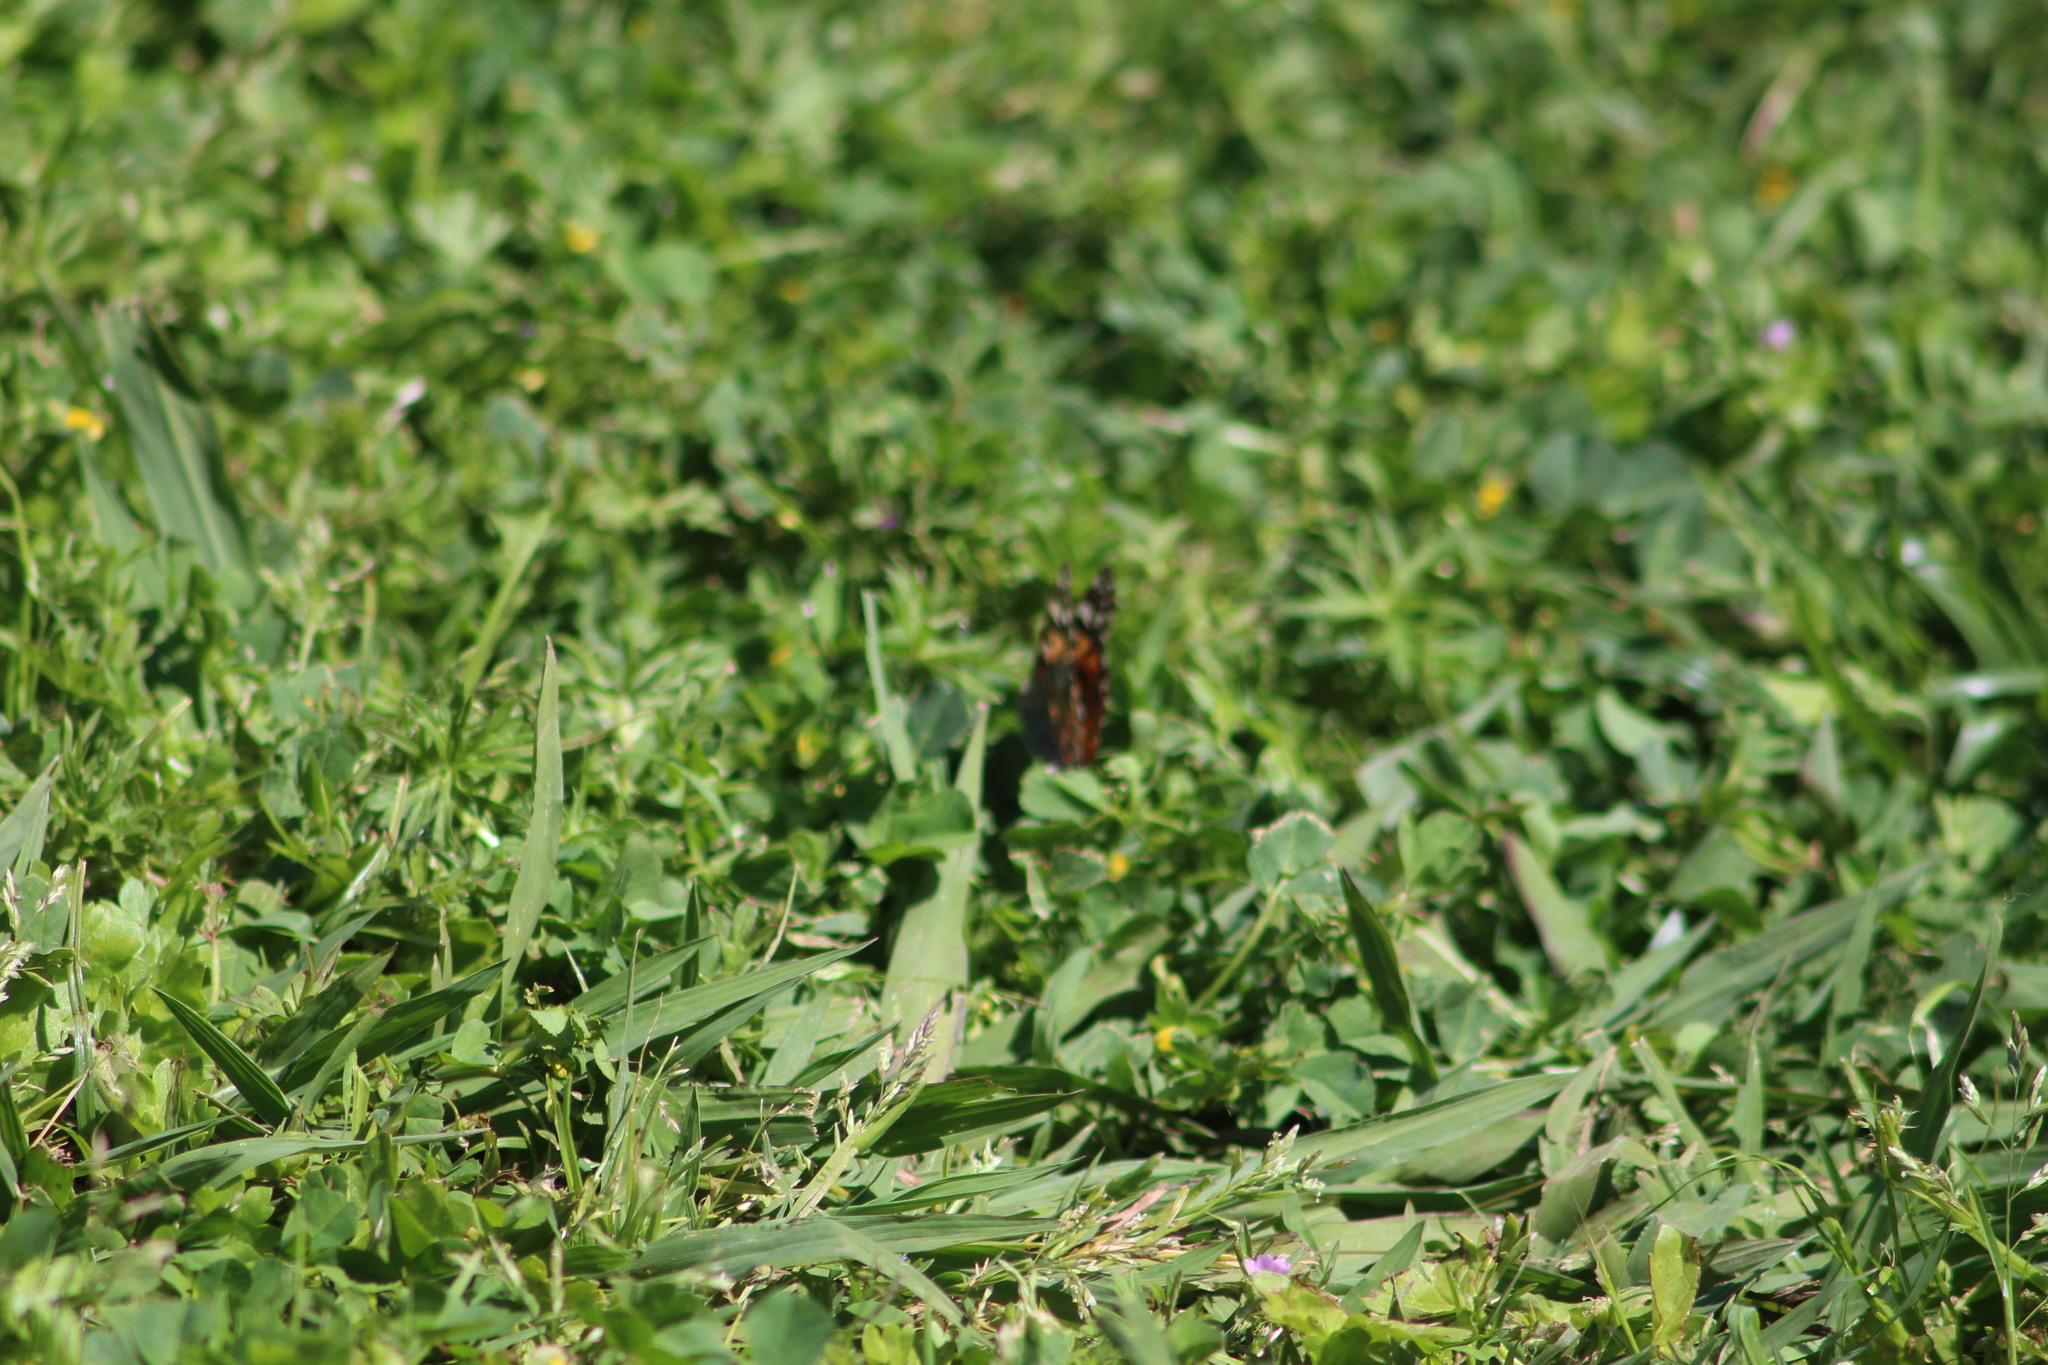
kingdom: Animalia
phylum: Arthropoda
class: Insecta
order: Lepidoptera
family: Nymphalidae
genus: Vanessa
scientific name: Vanessa cardui
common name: Painted lady
